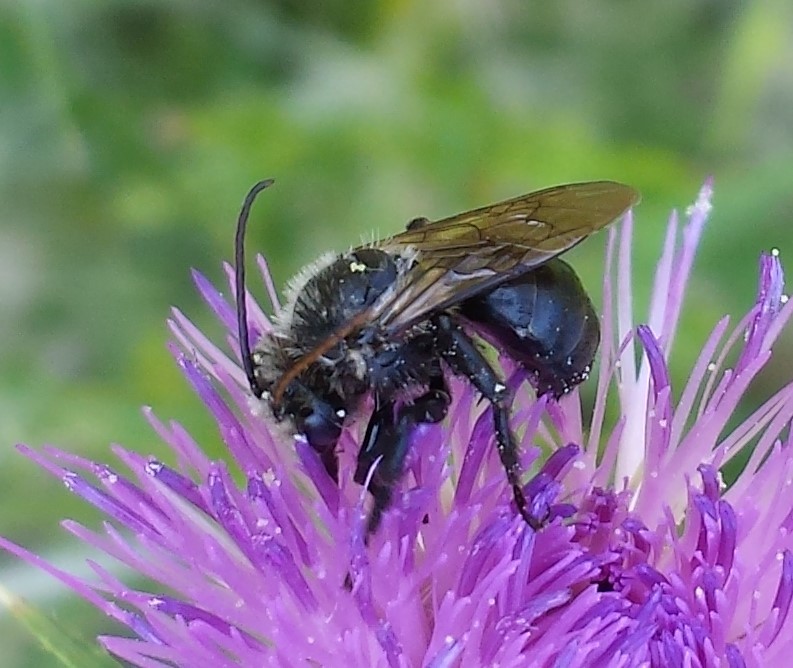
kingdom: Animalia
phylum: Arthropoda
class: Insecta
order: Hymenoptera
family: Apidae
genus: Melissodes
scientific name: Melissodes desponsus
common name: Thistle long-horned bee
